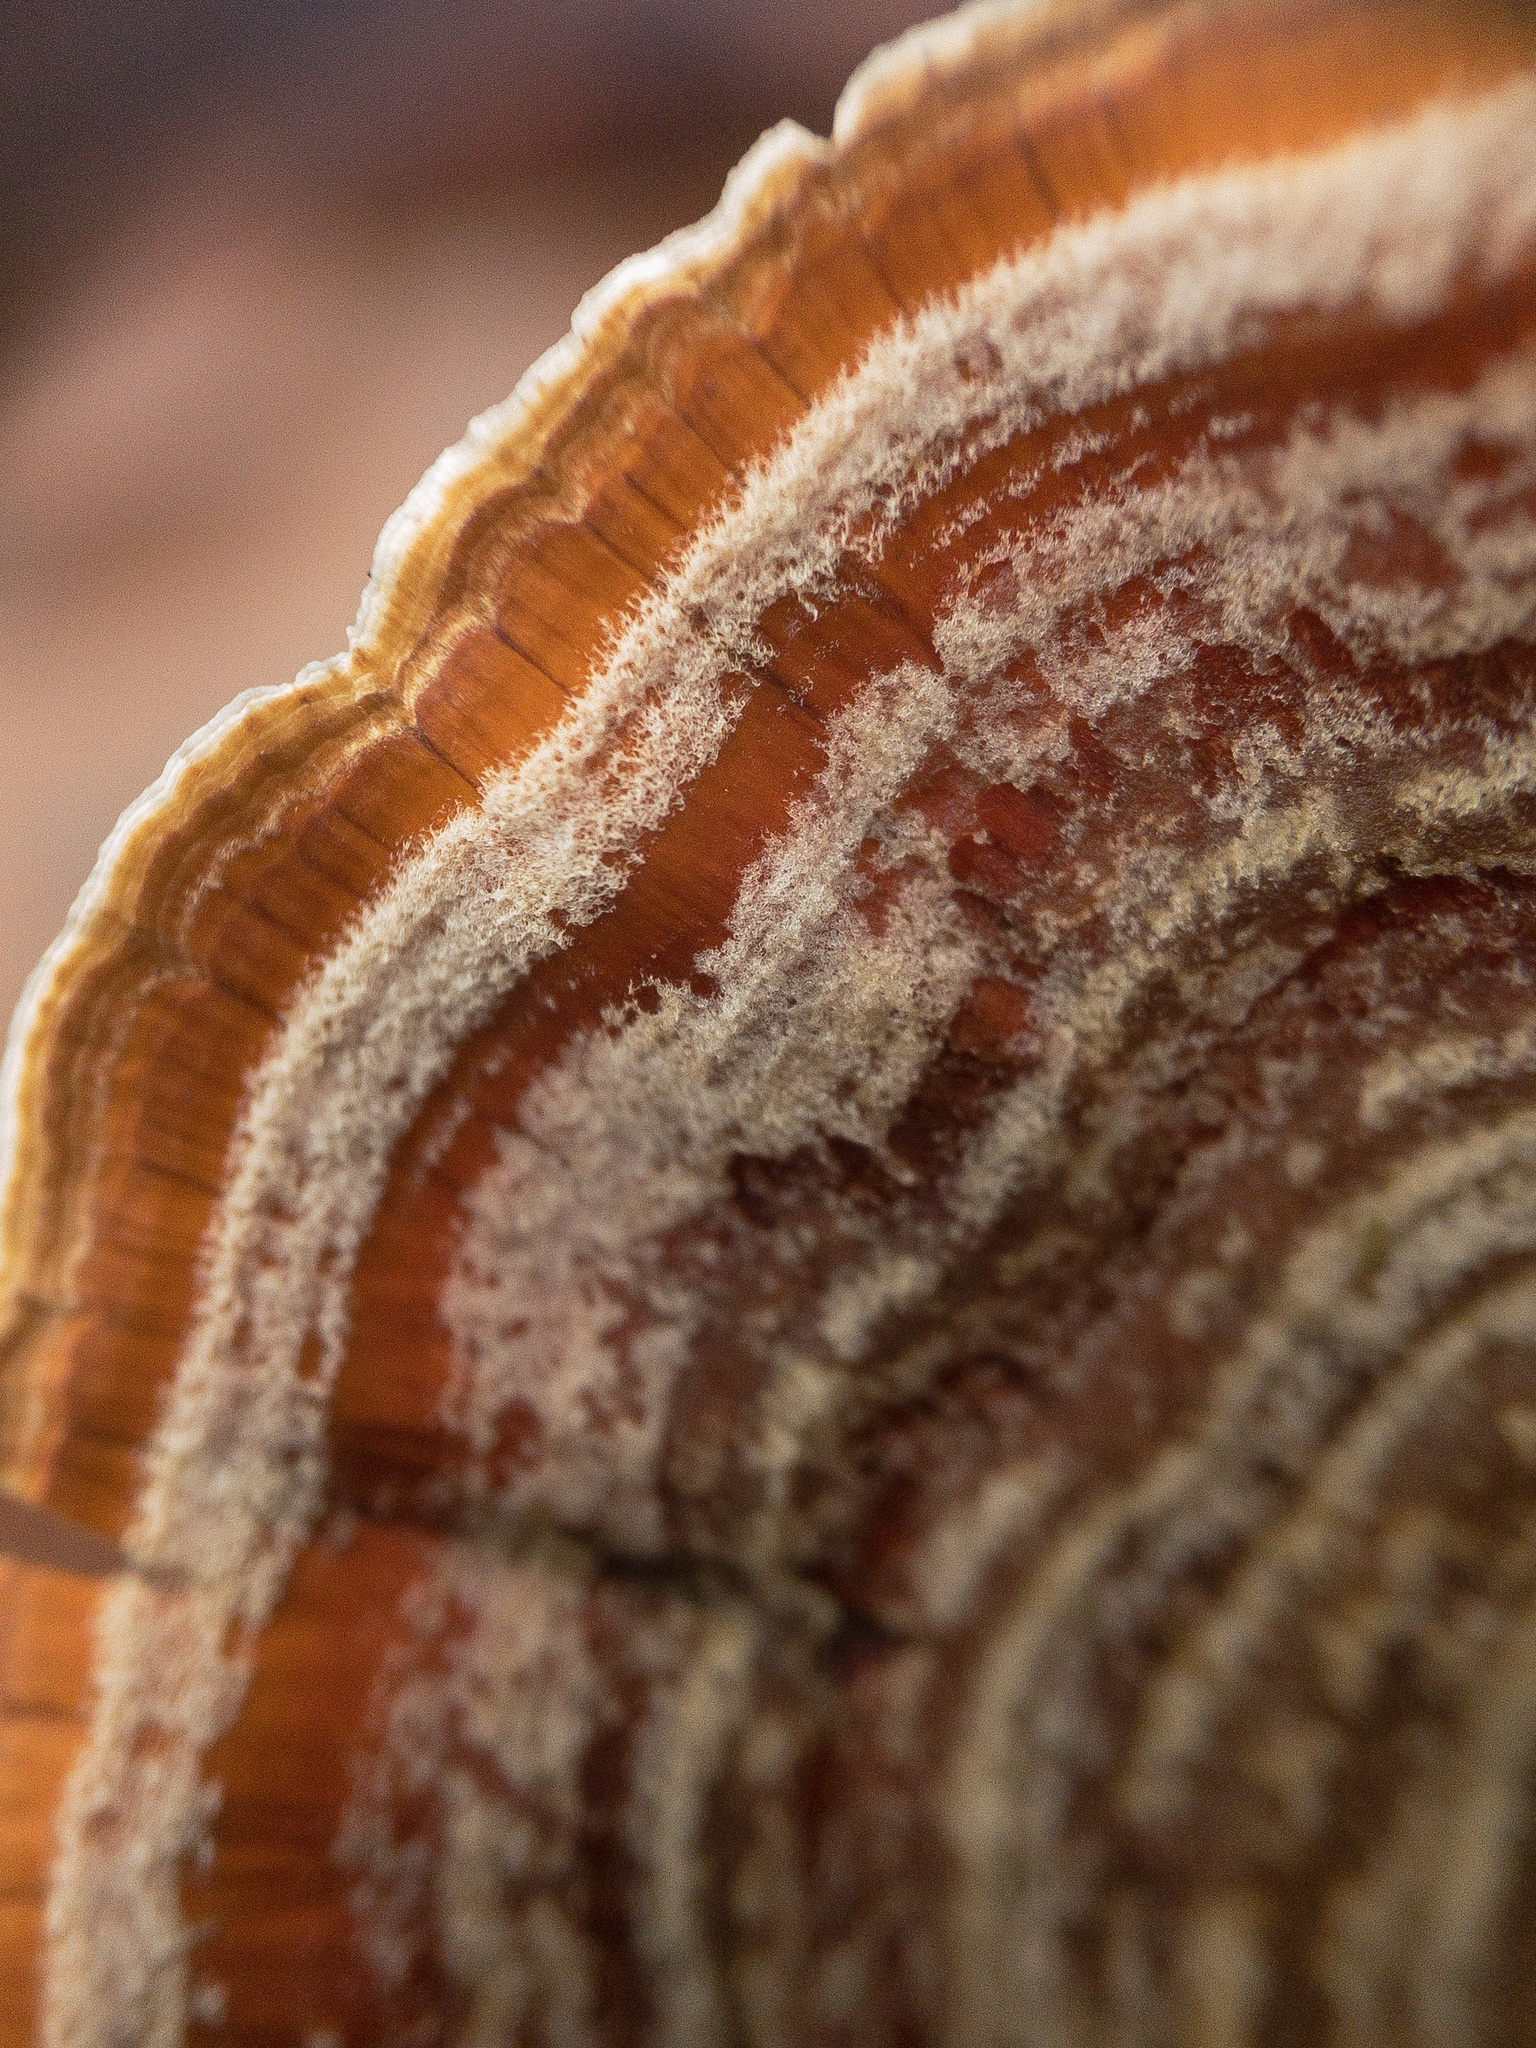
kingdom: Fungi
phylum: Basidiomycota
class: Agaricomycetes
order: Russulales
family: Stereaceae
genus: Stereum
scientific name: Stereum lobatum
